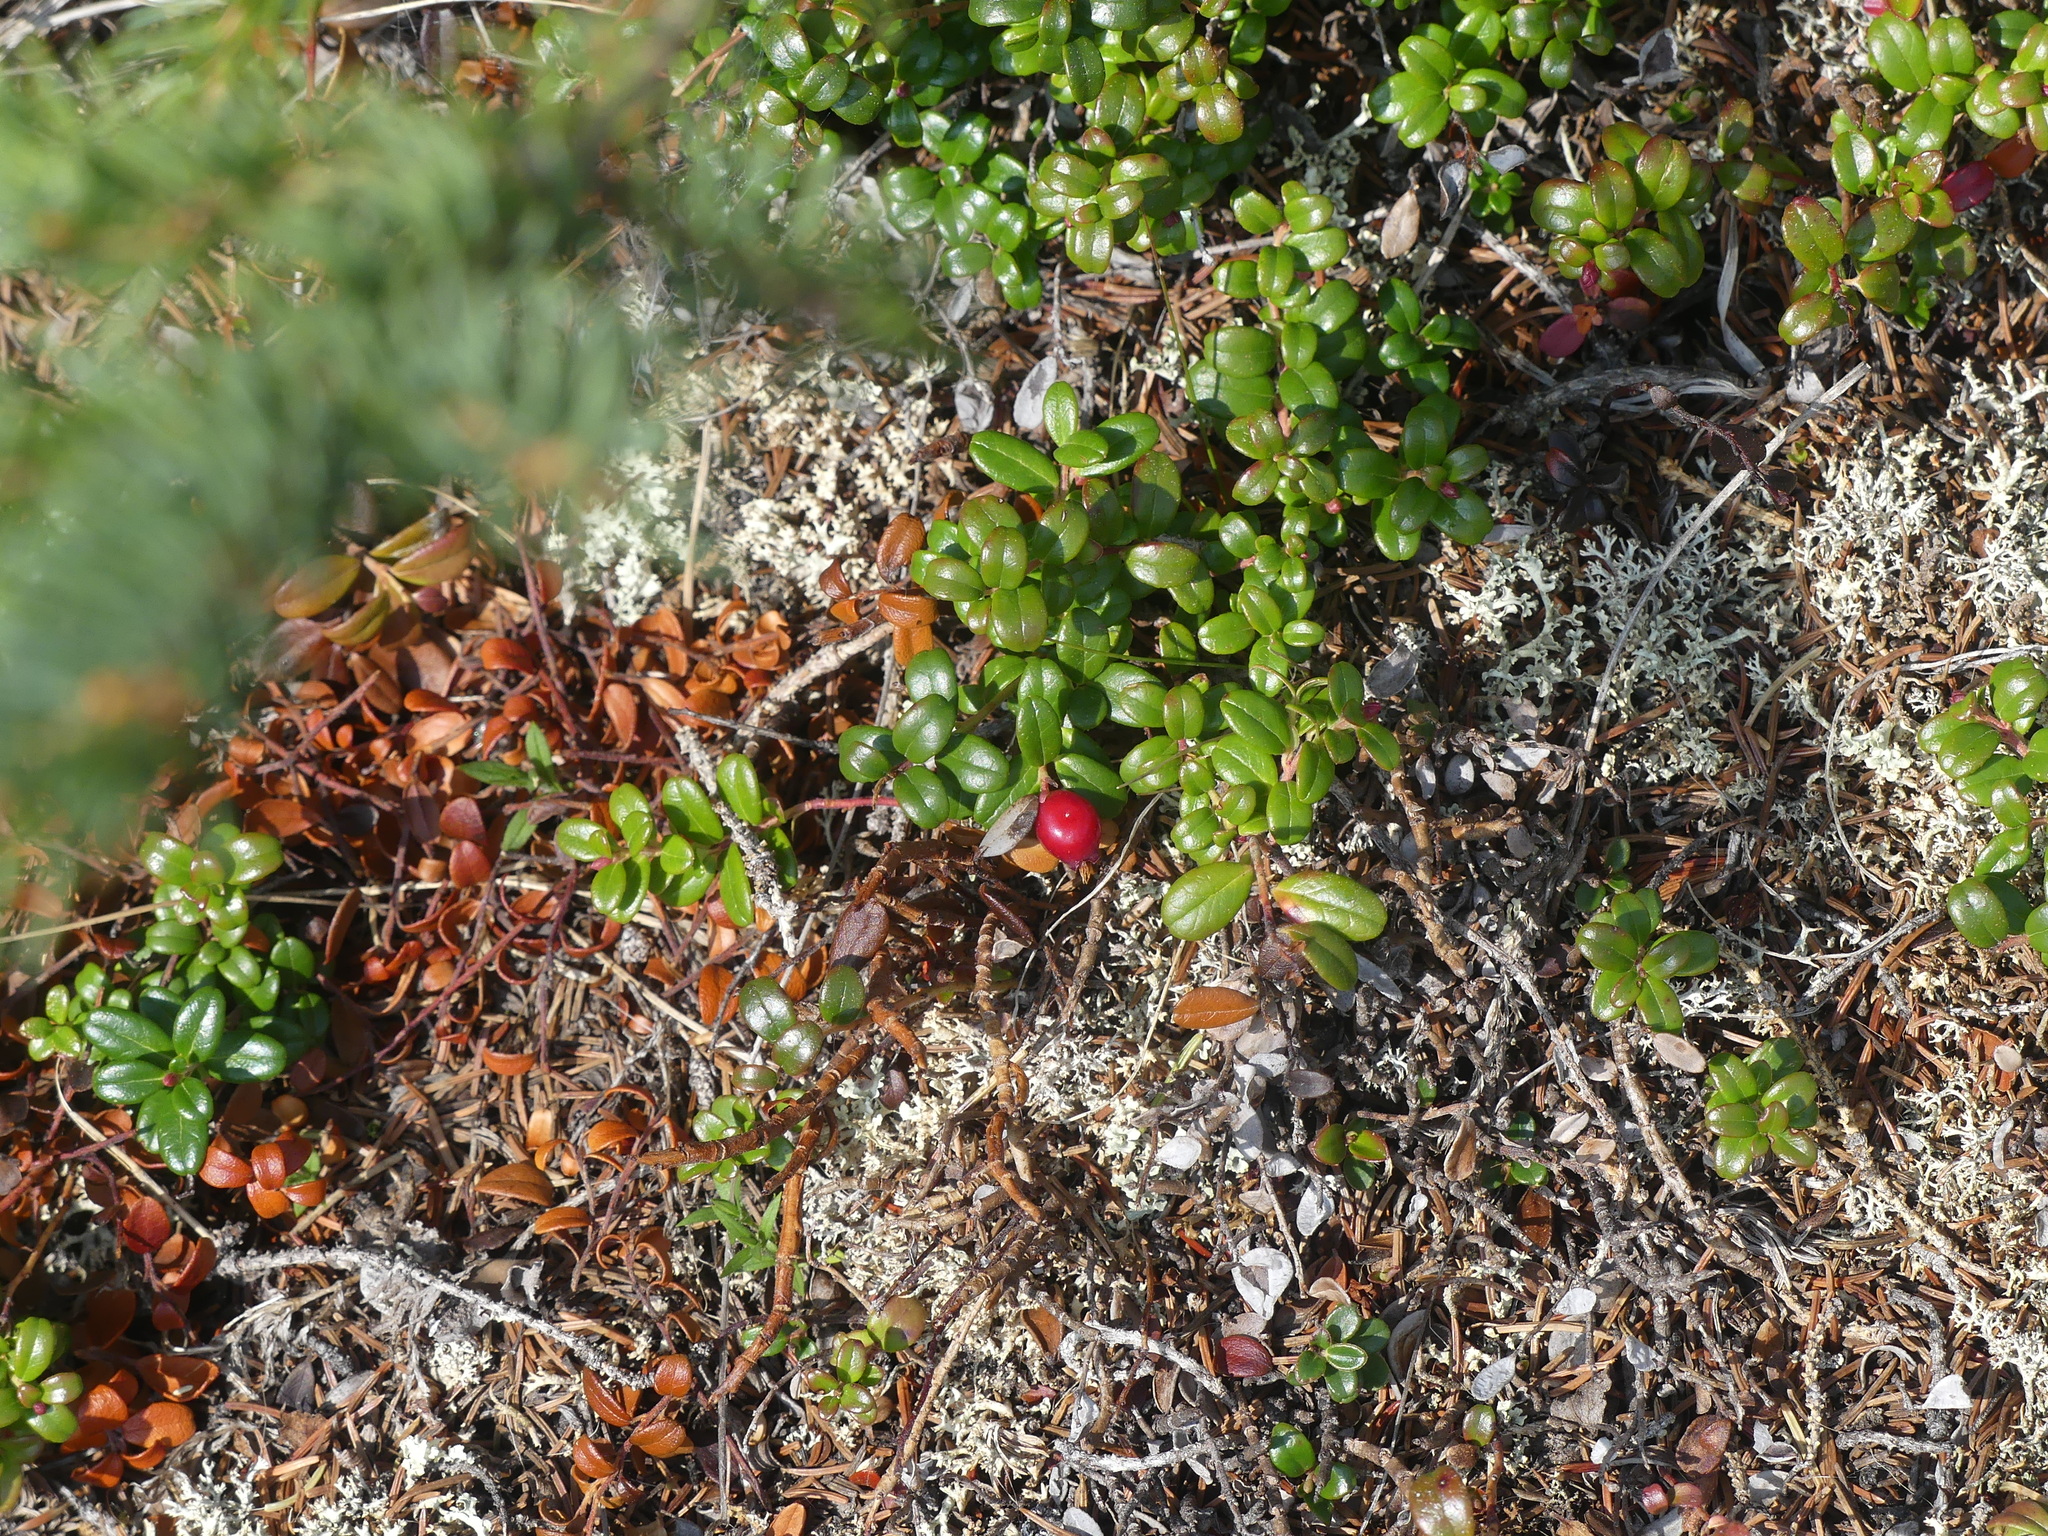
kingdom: Plantae
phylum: Tracheophyta
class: Magnoliopsida
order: Ericales
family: Ericaceae
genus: Vaccinium
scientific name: Vaccinium vitis-idaea
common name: Cowberry
